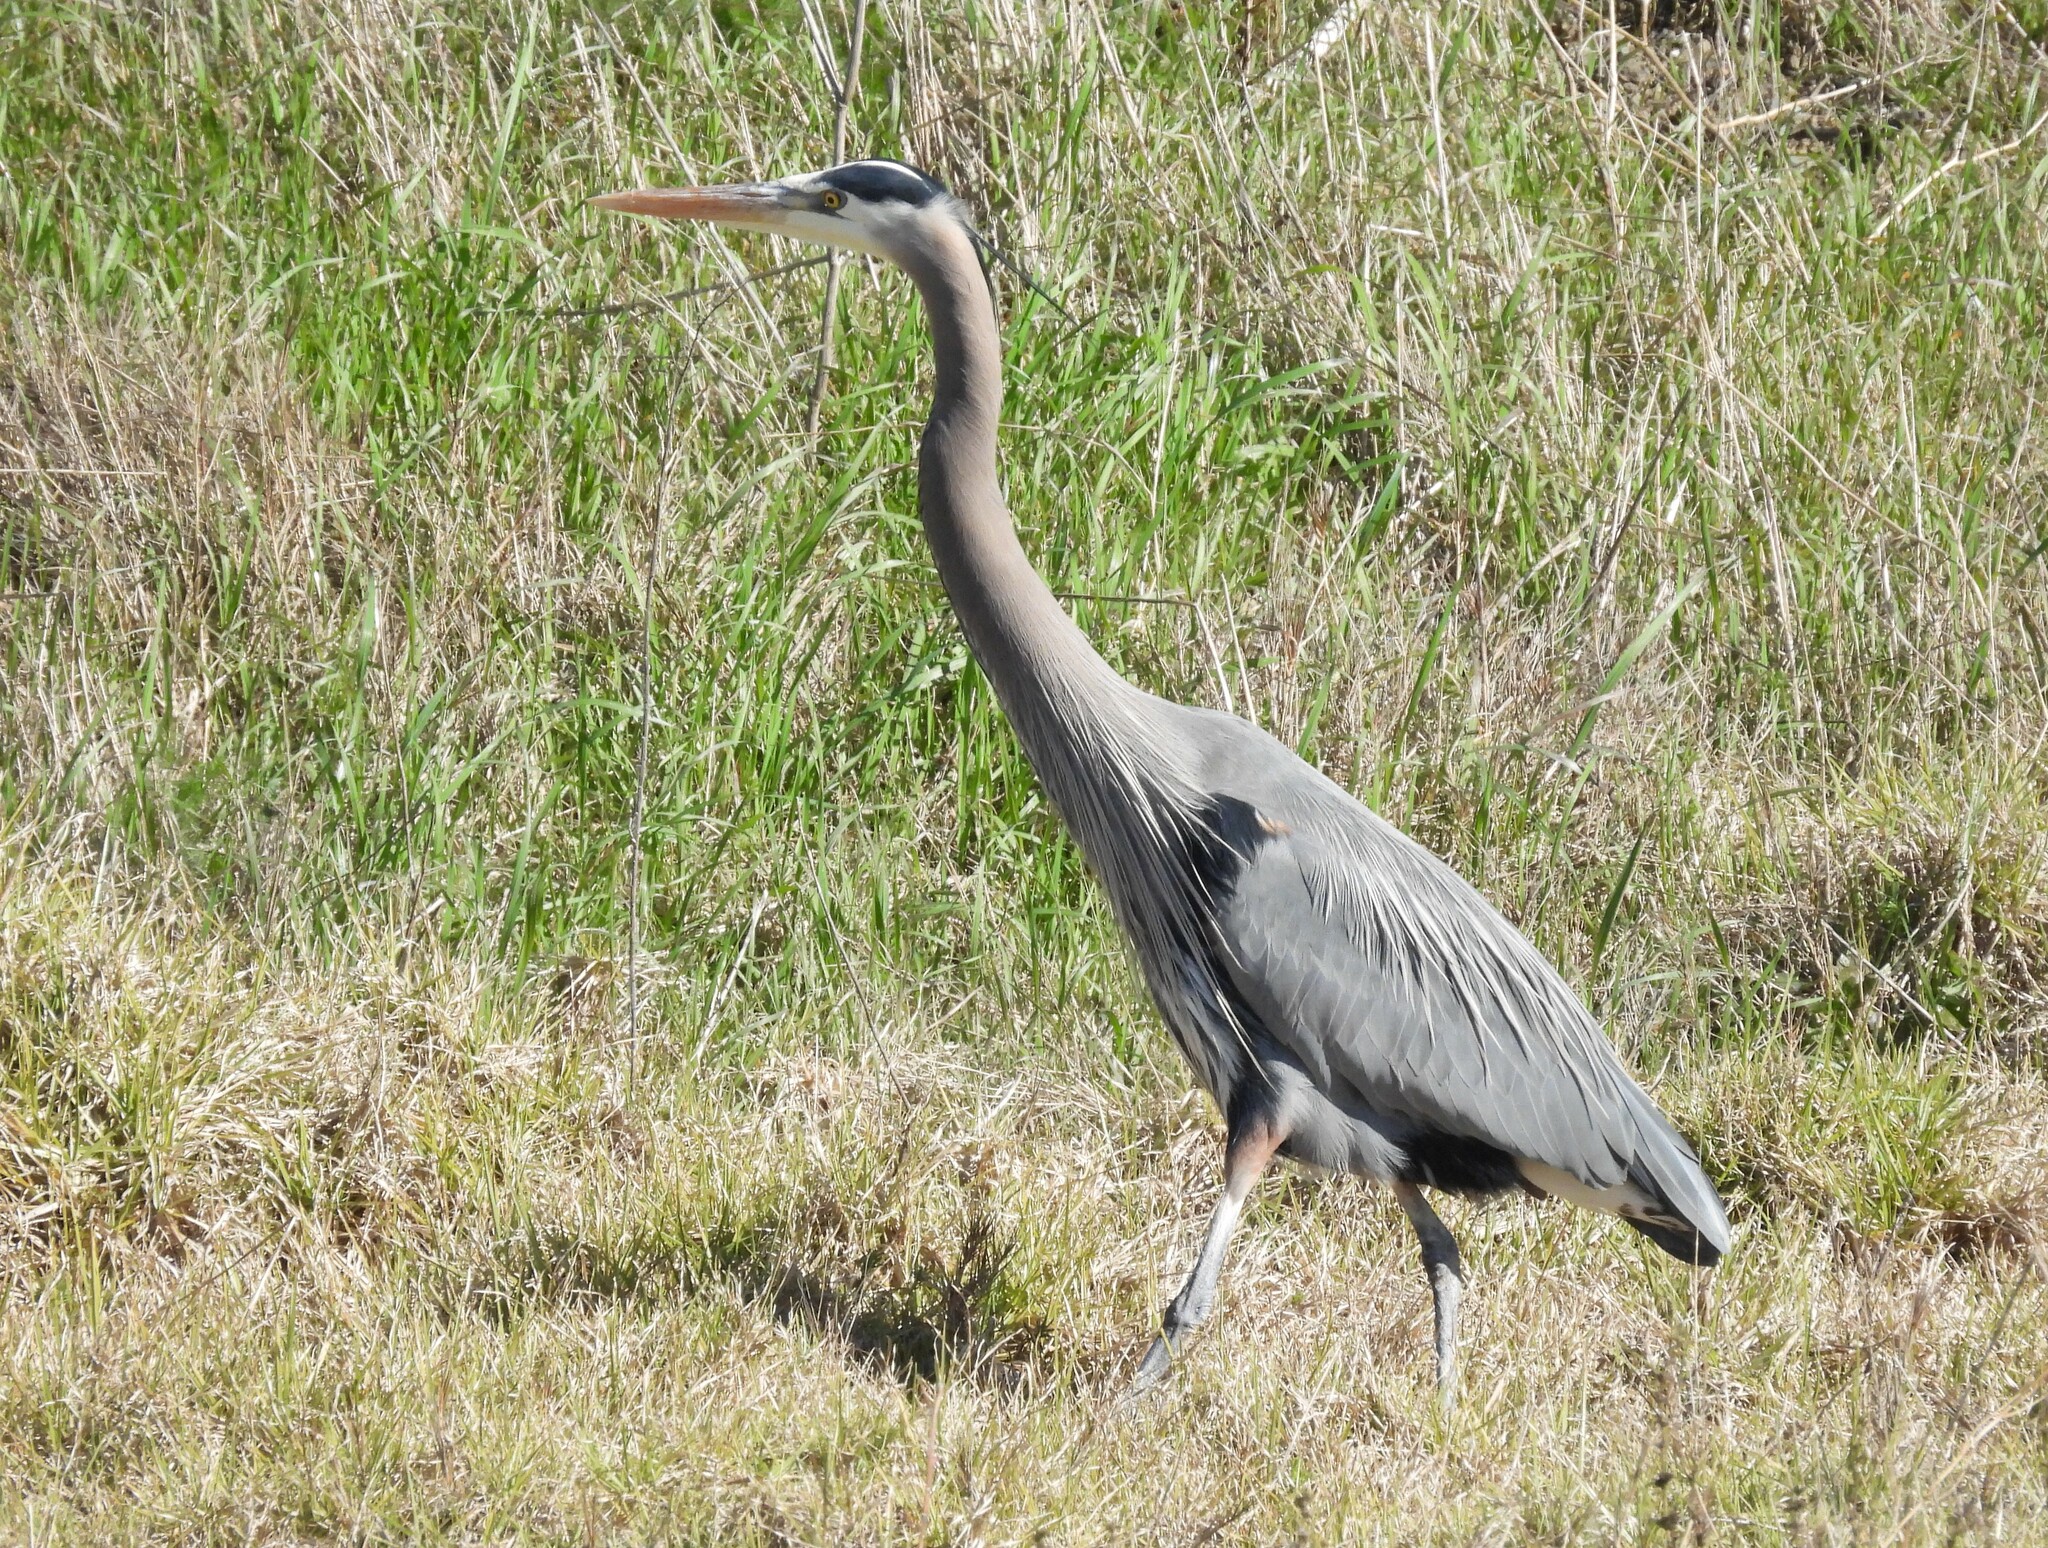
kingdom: Animalia
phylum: Chordata
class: Aves
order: Pelecaniformes
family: Ardeidae
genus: Ardea
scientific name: Ardea herodias
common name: Great blue heron
